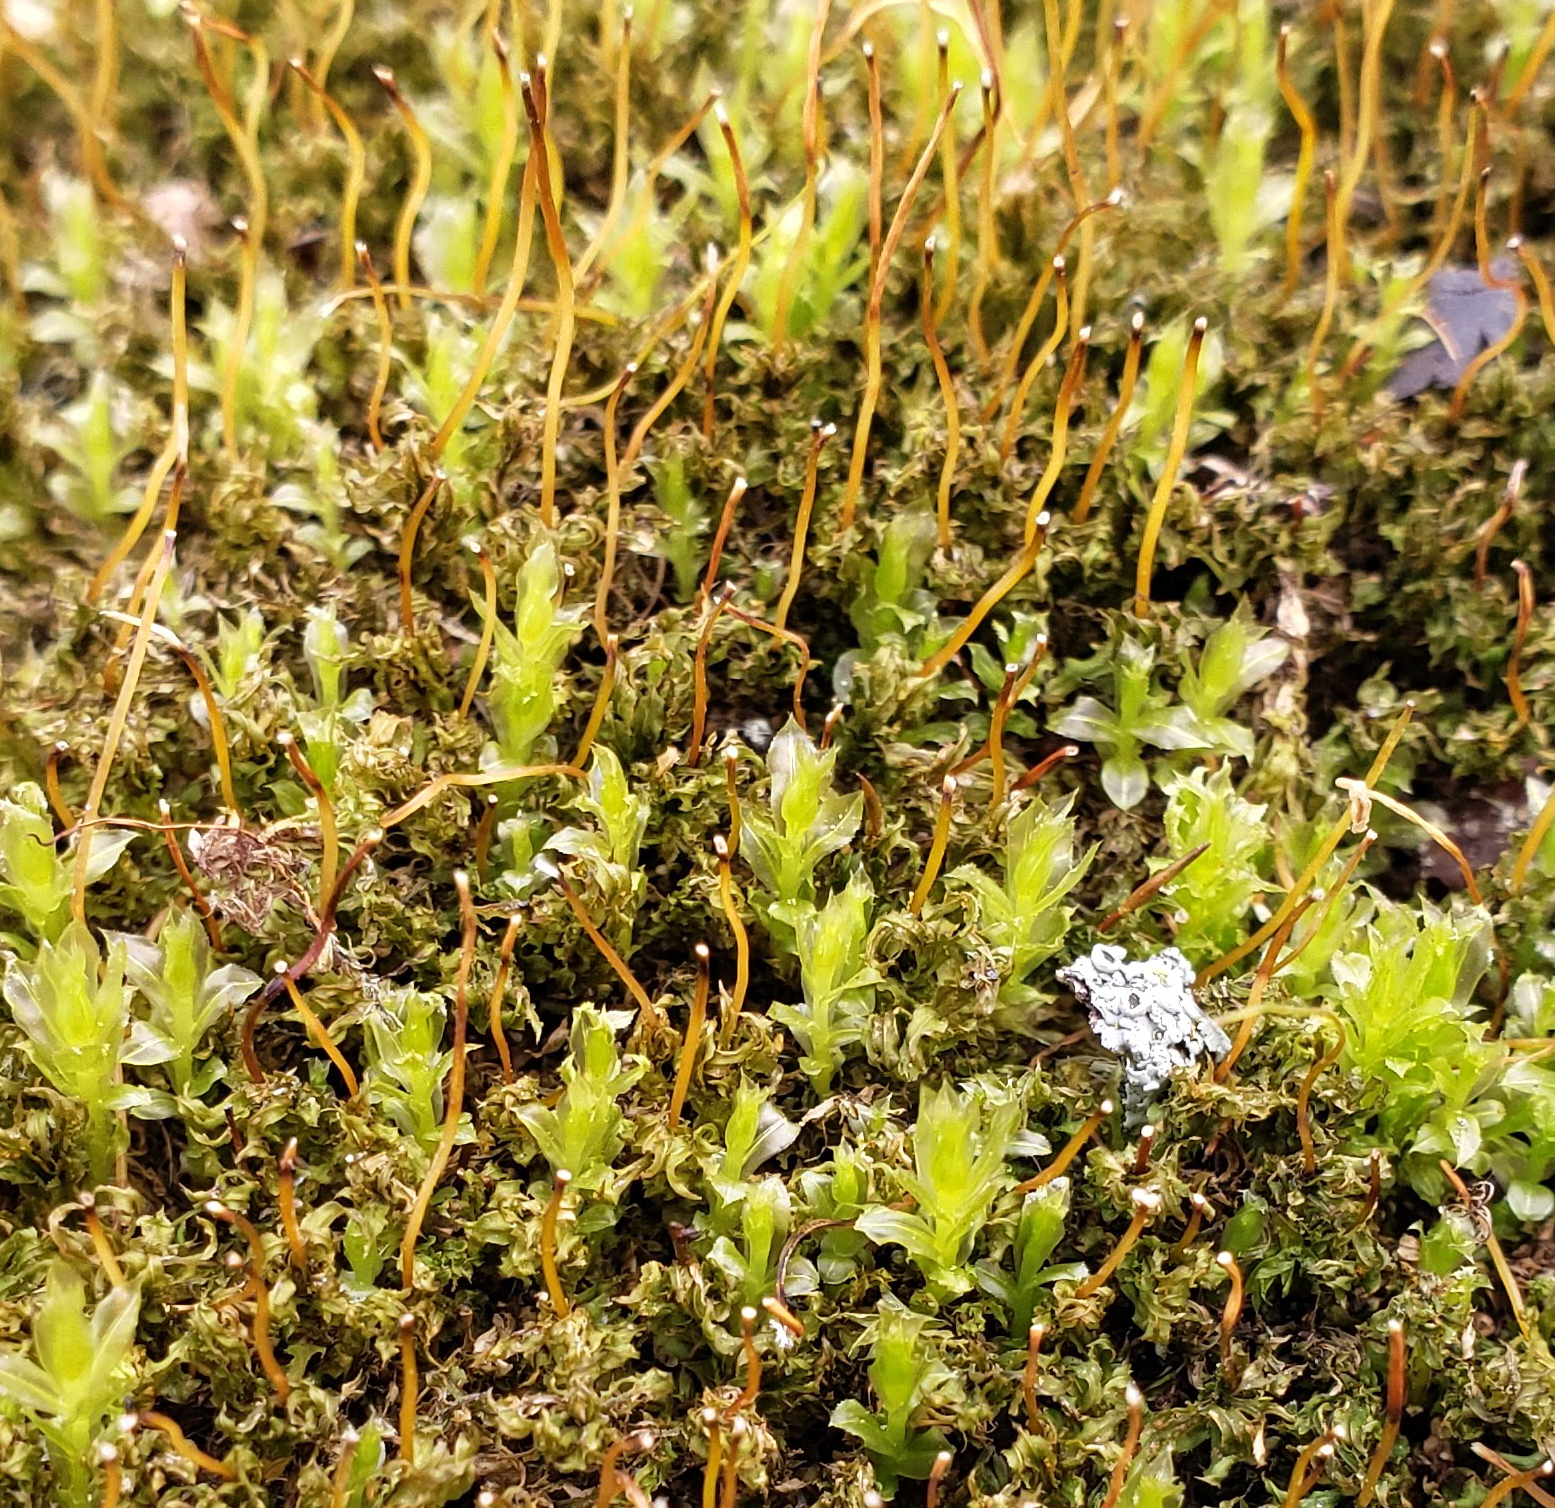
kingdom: Plantae
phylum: Bryophyta
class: Bryopsida
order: Bryales
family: Mniaceae
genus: Plagiomnium
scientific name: Plagiomnium cuspidatum
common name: Woodsy leafy moss
